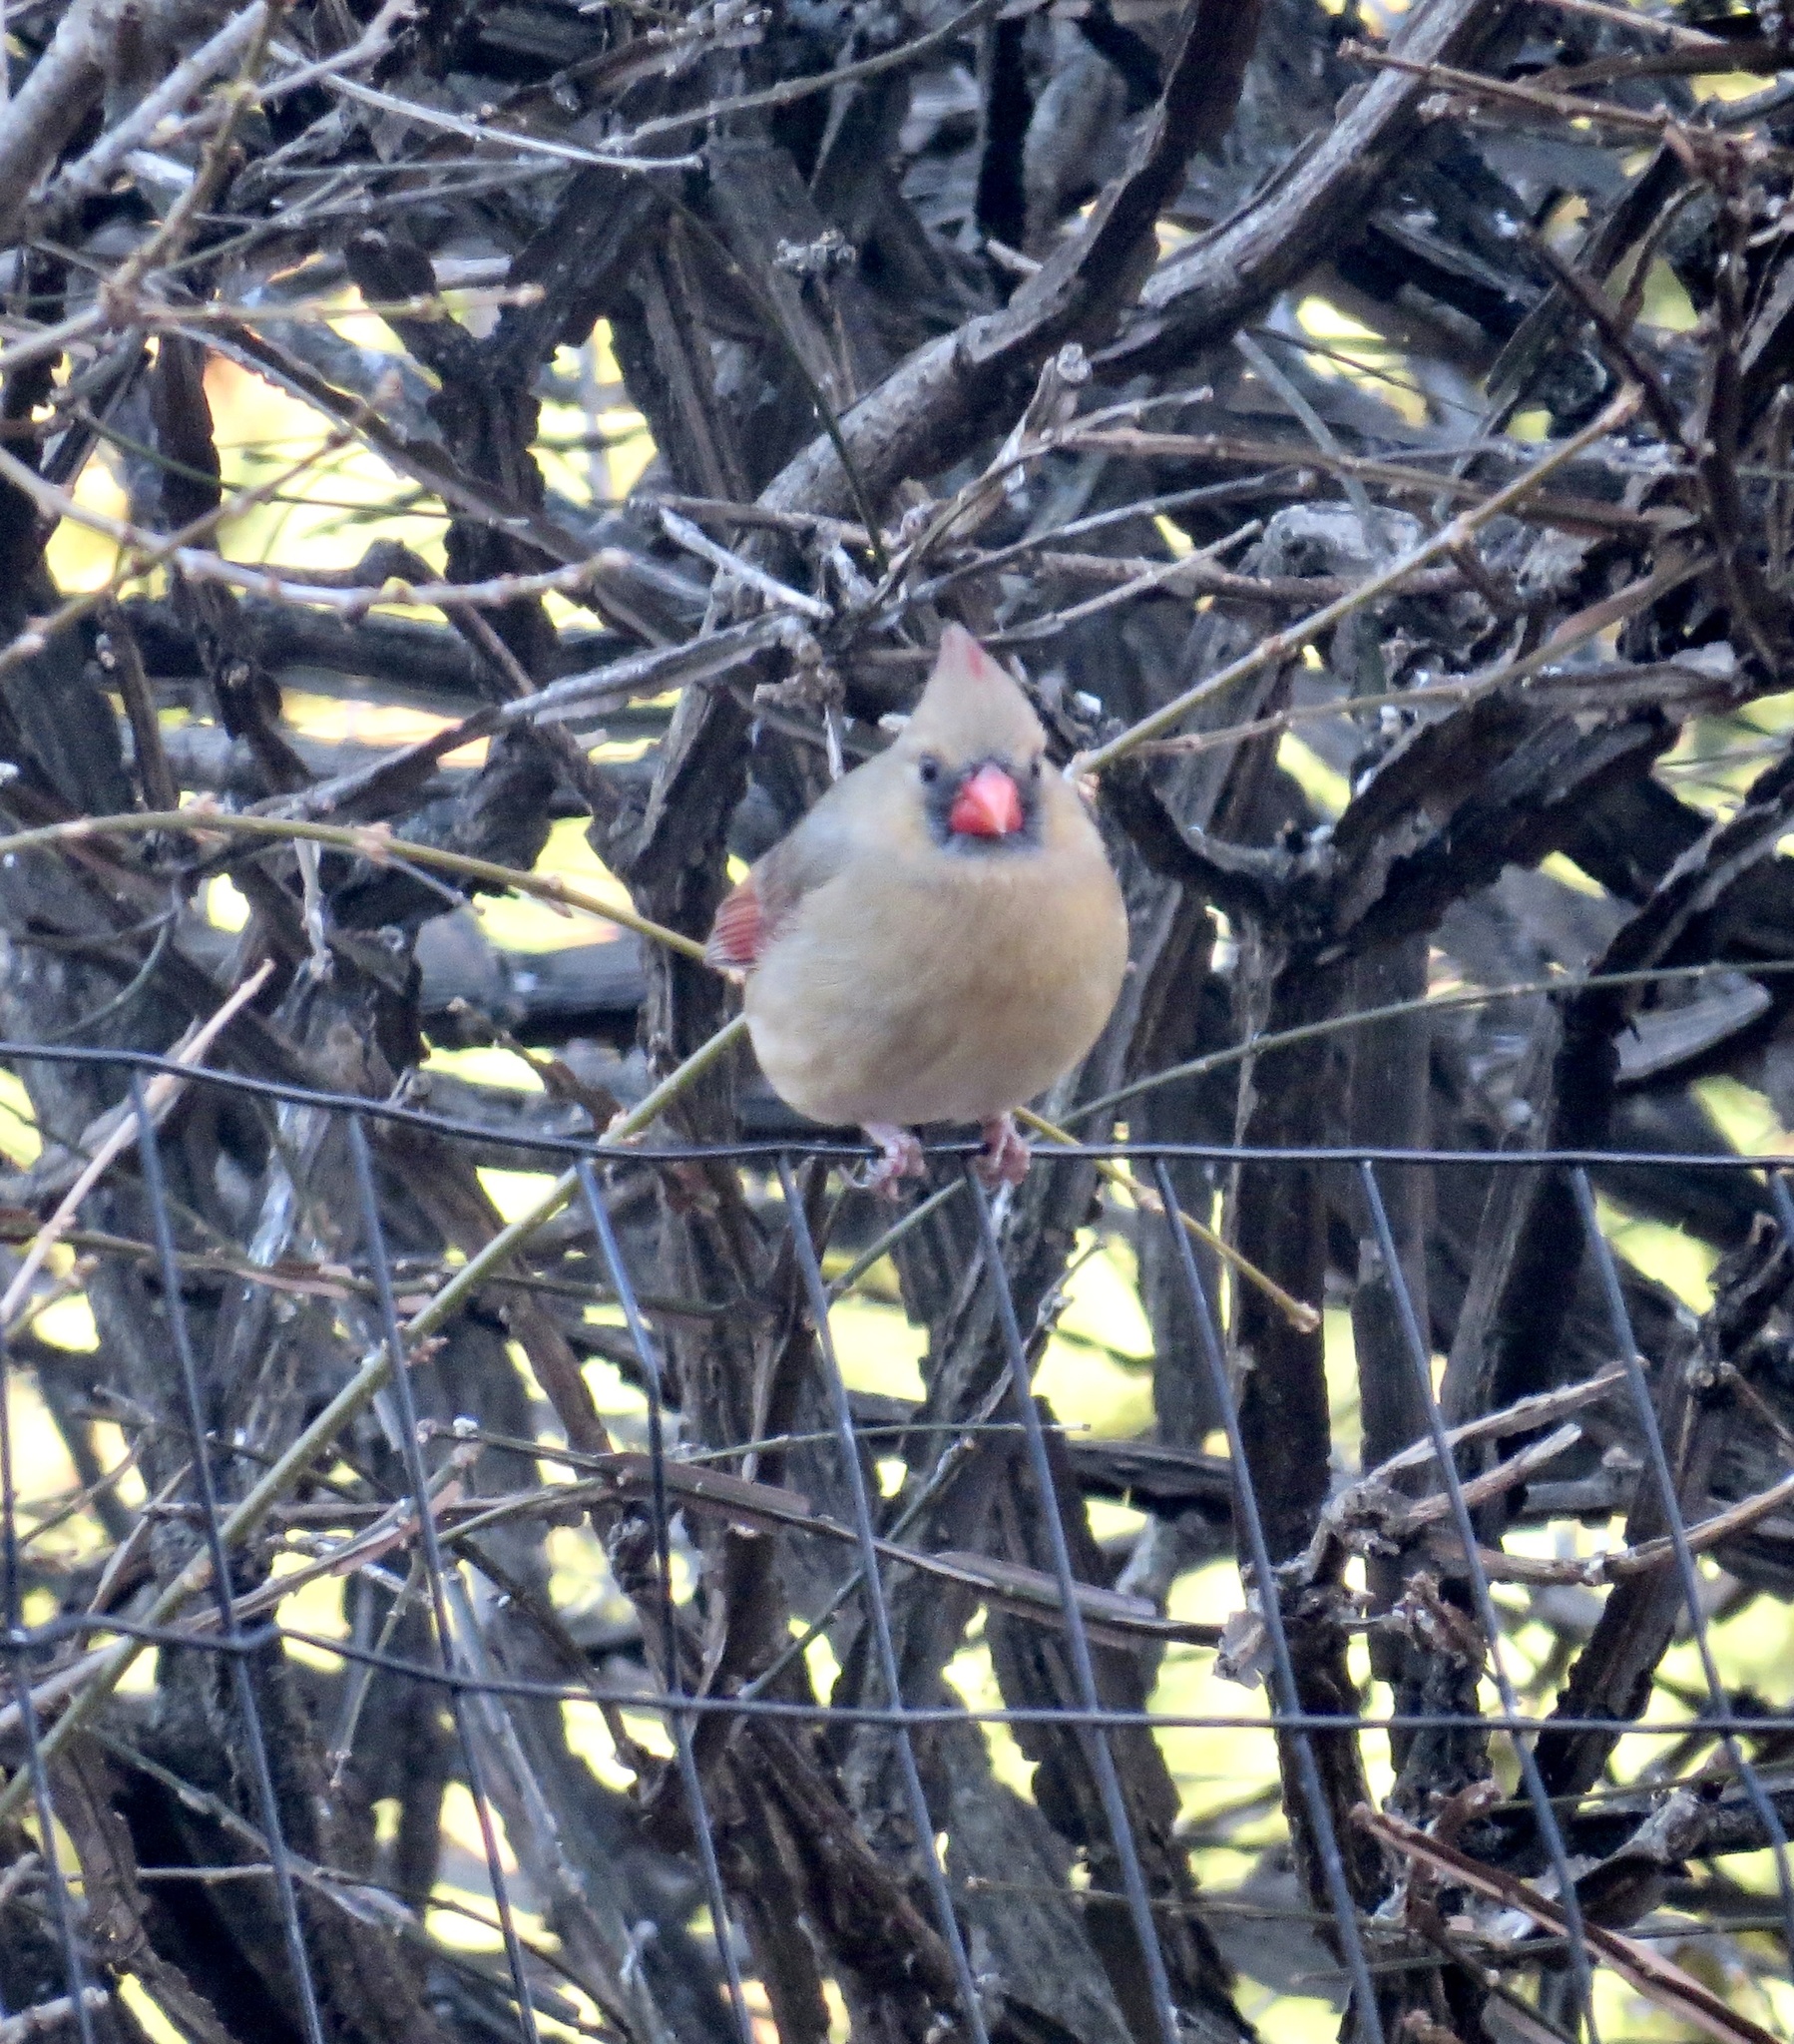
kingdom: Animalia
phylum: Chordata
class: Aves
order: Passeriformes
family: Cardinalidae
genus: Cardinalis
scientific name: Cardinalis cardinalis
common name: Northern cardinal
